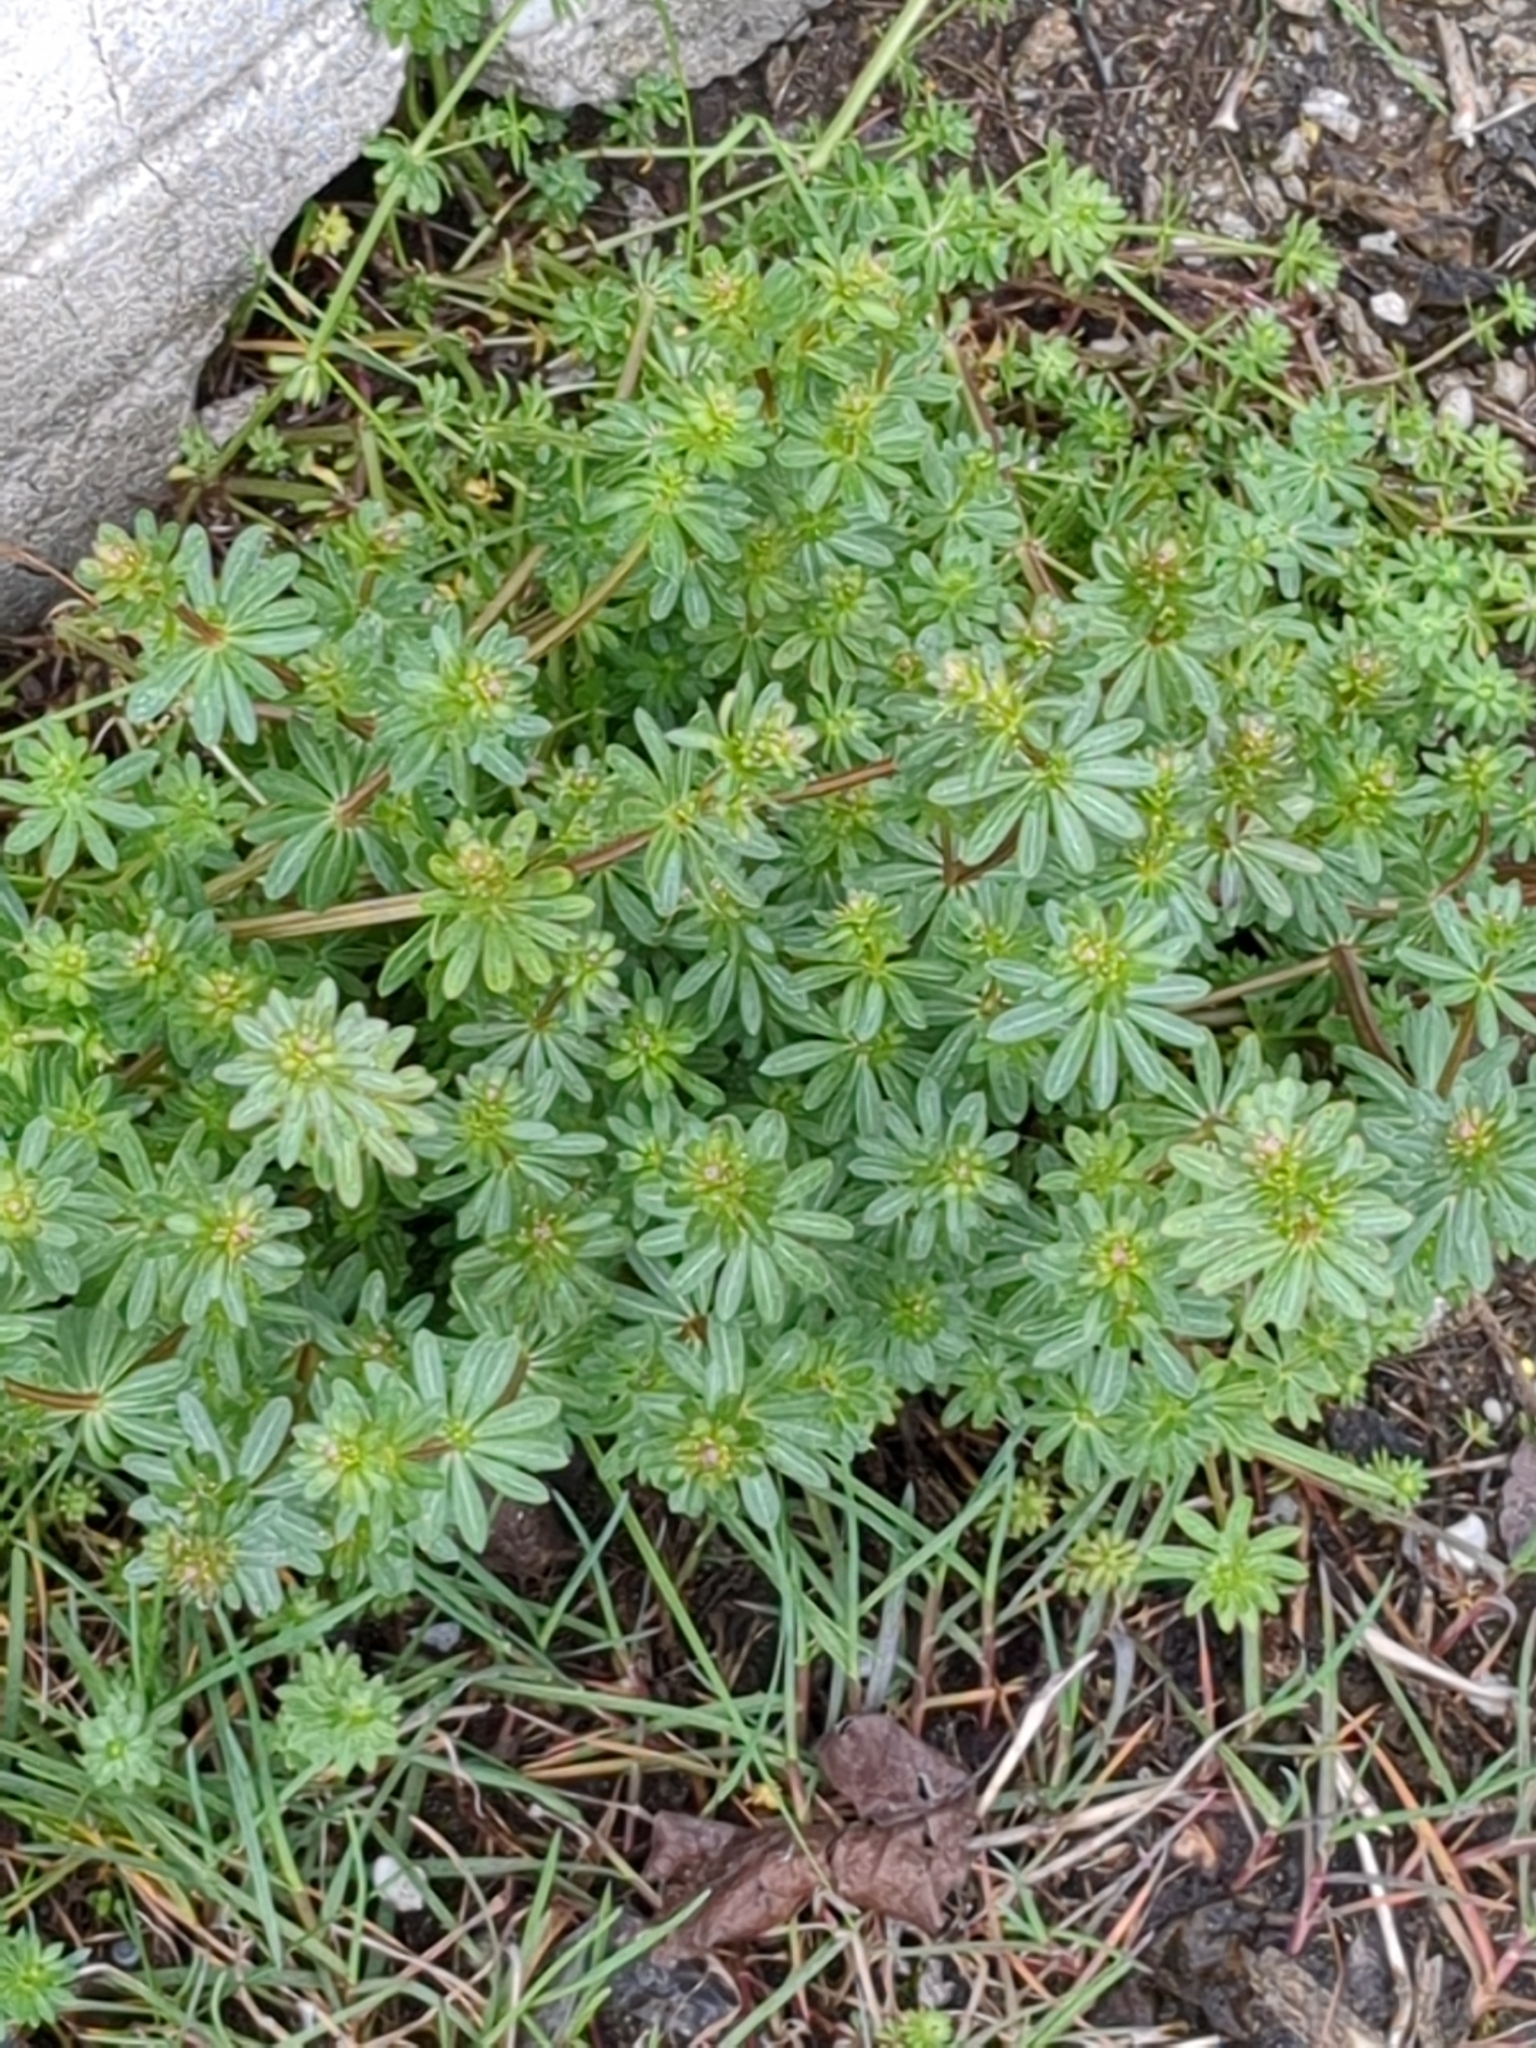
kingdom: Plantae
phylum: Tracheophyta
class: Magnoliopsida
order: Gentianales
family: Rubiaceae
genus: Galium
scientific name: Galium mollugo
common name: Hedge bedstraw
